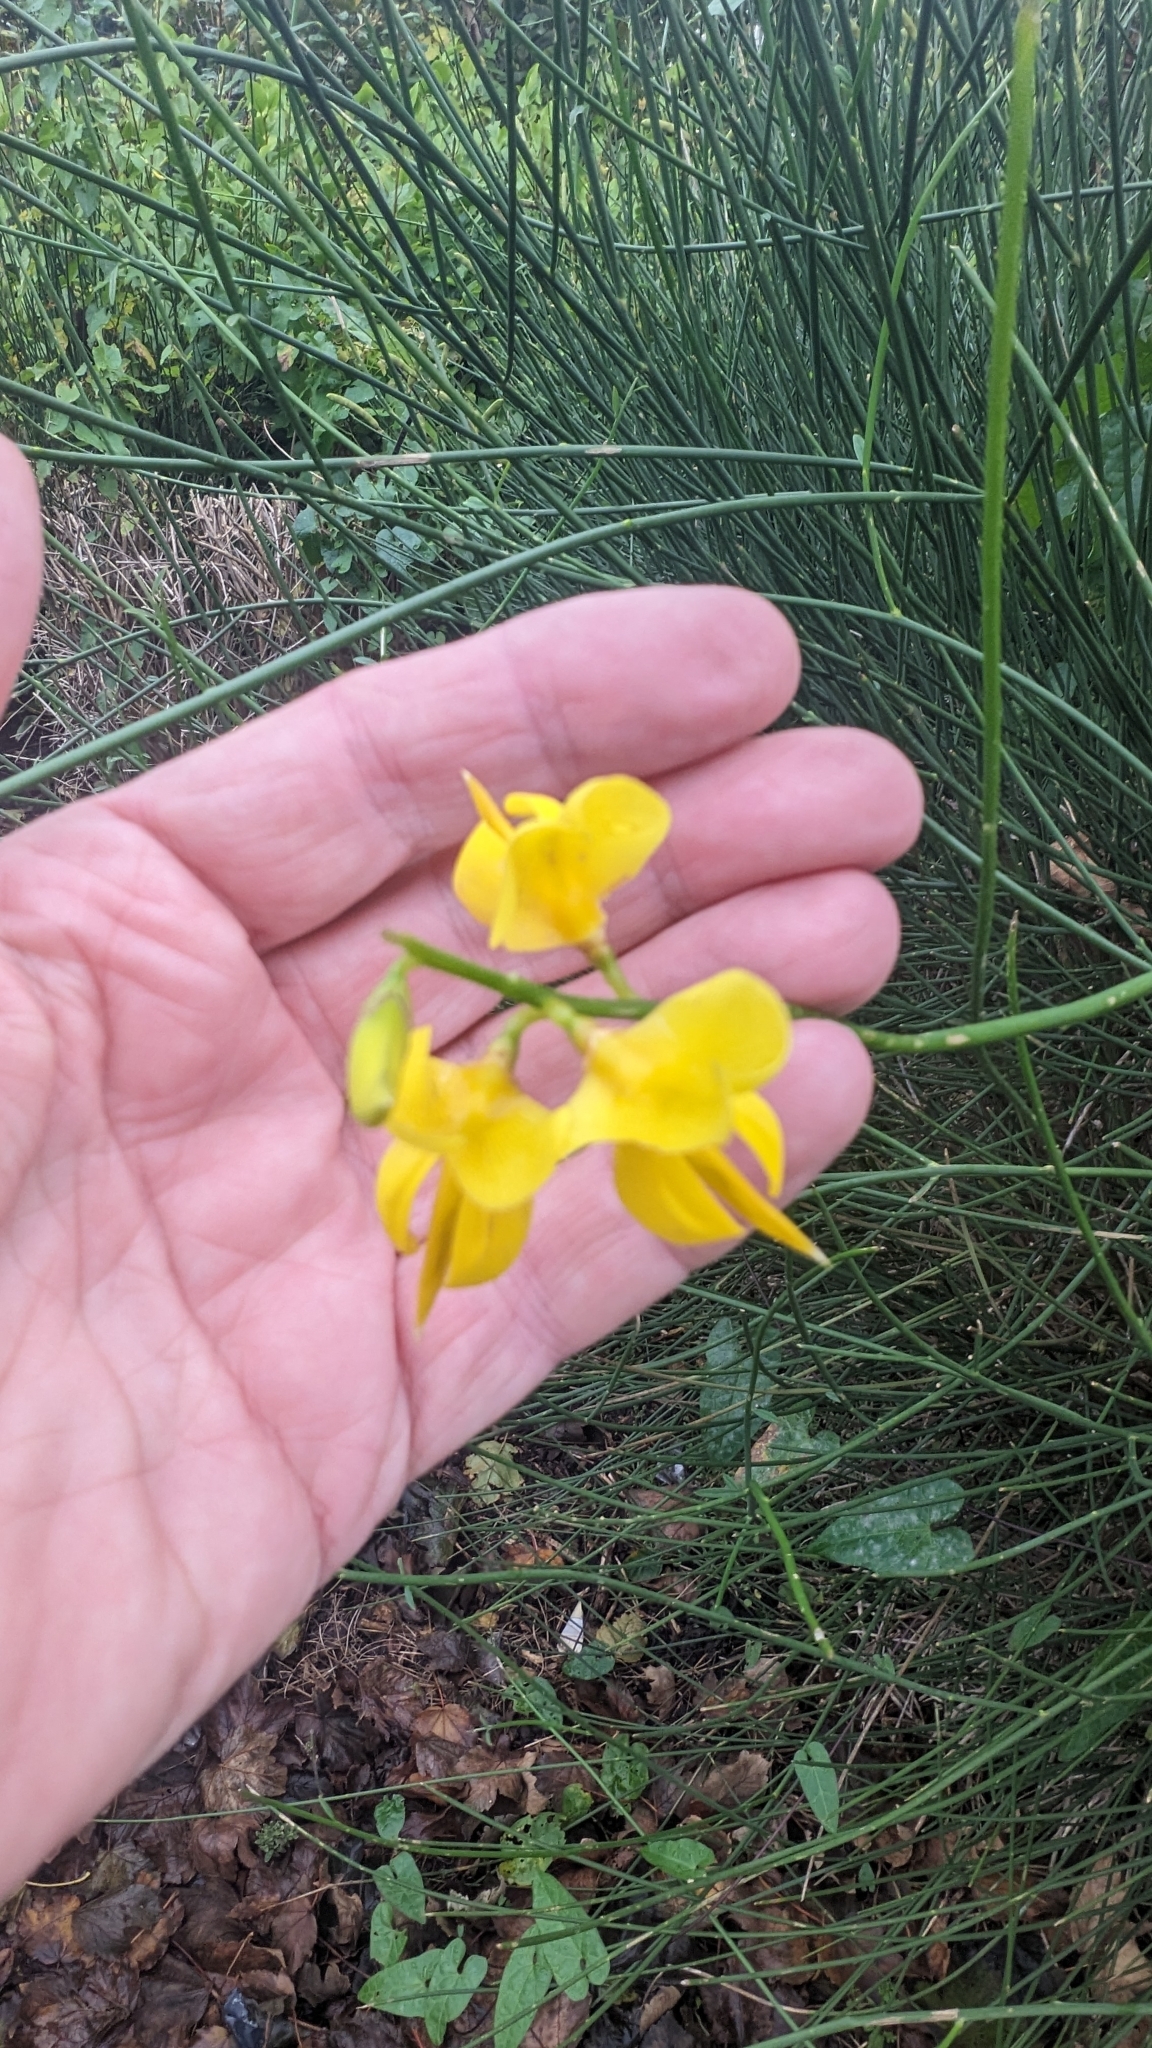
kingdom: Plantae
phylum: Tracheophyta
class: Magnoliopsida
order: Fabales
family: Fabaceae
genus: Spartium
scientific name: Spartium junceum
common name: Spanish broom
